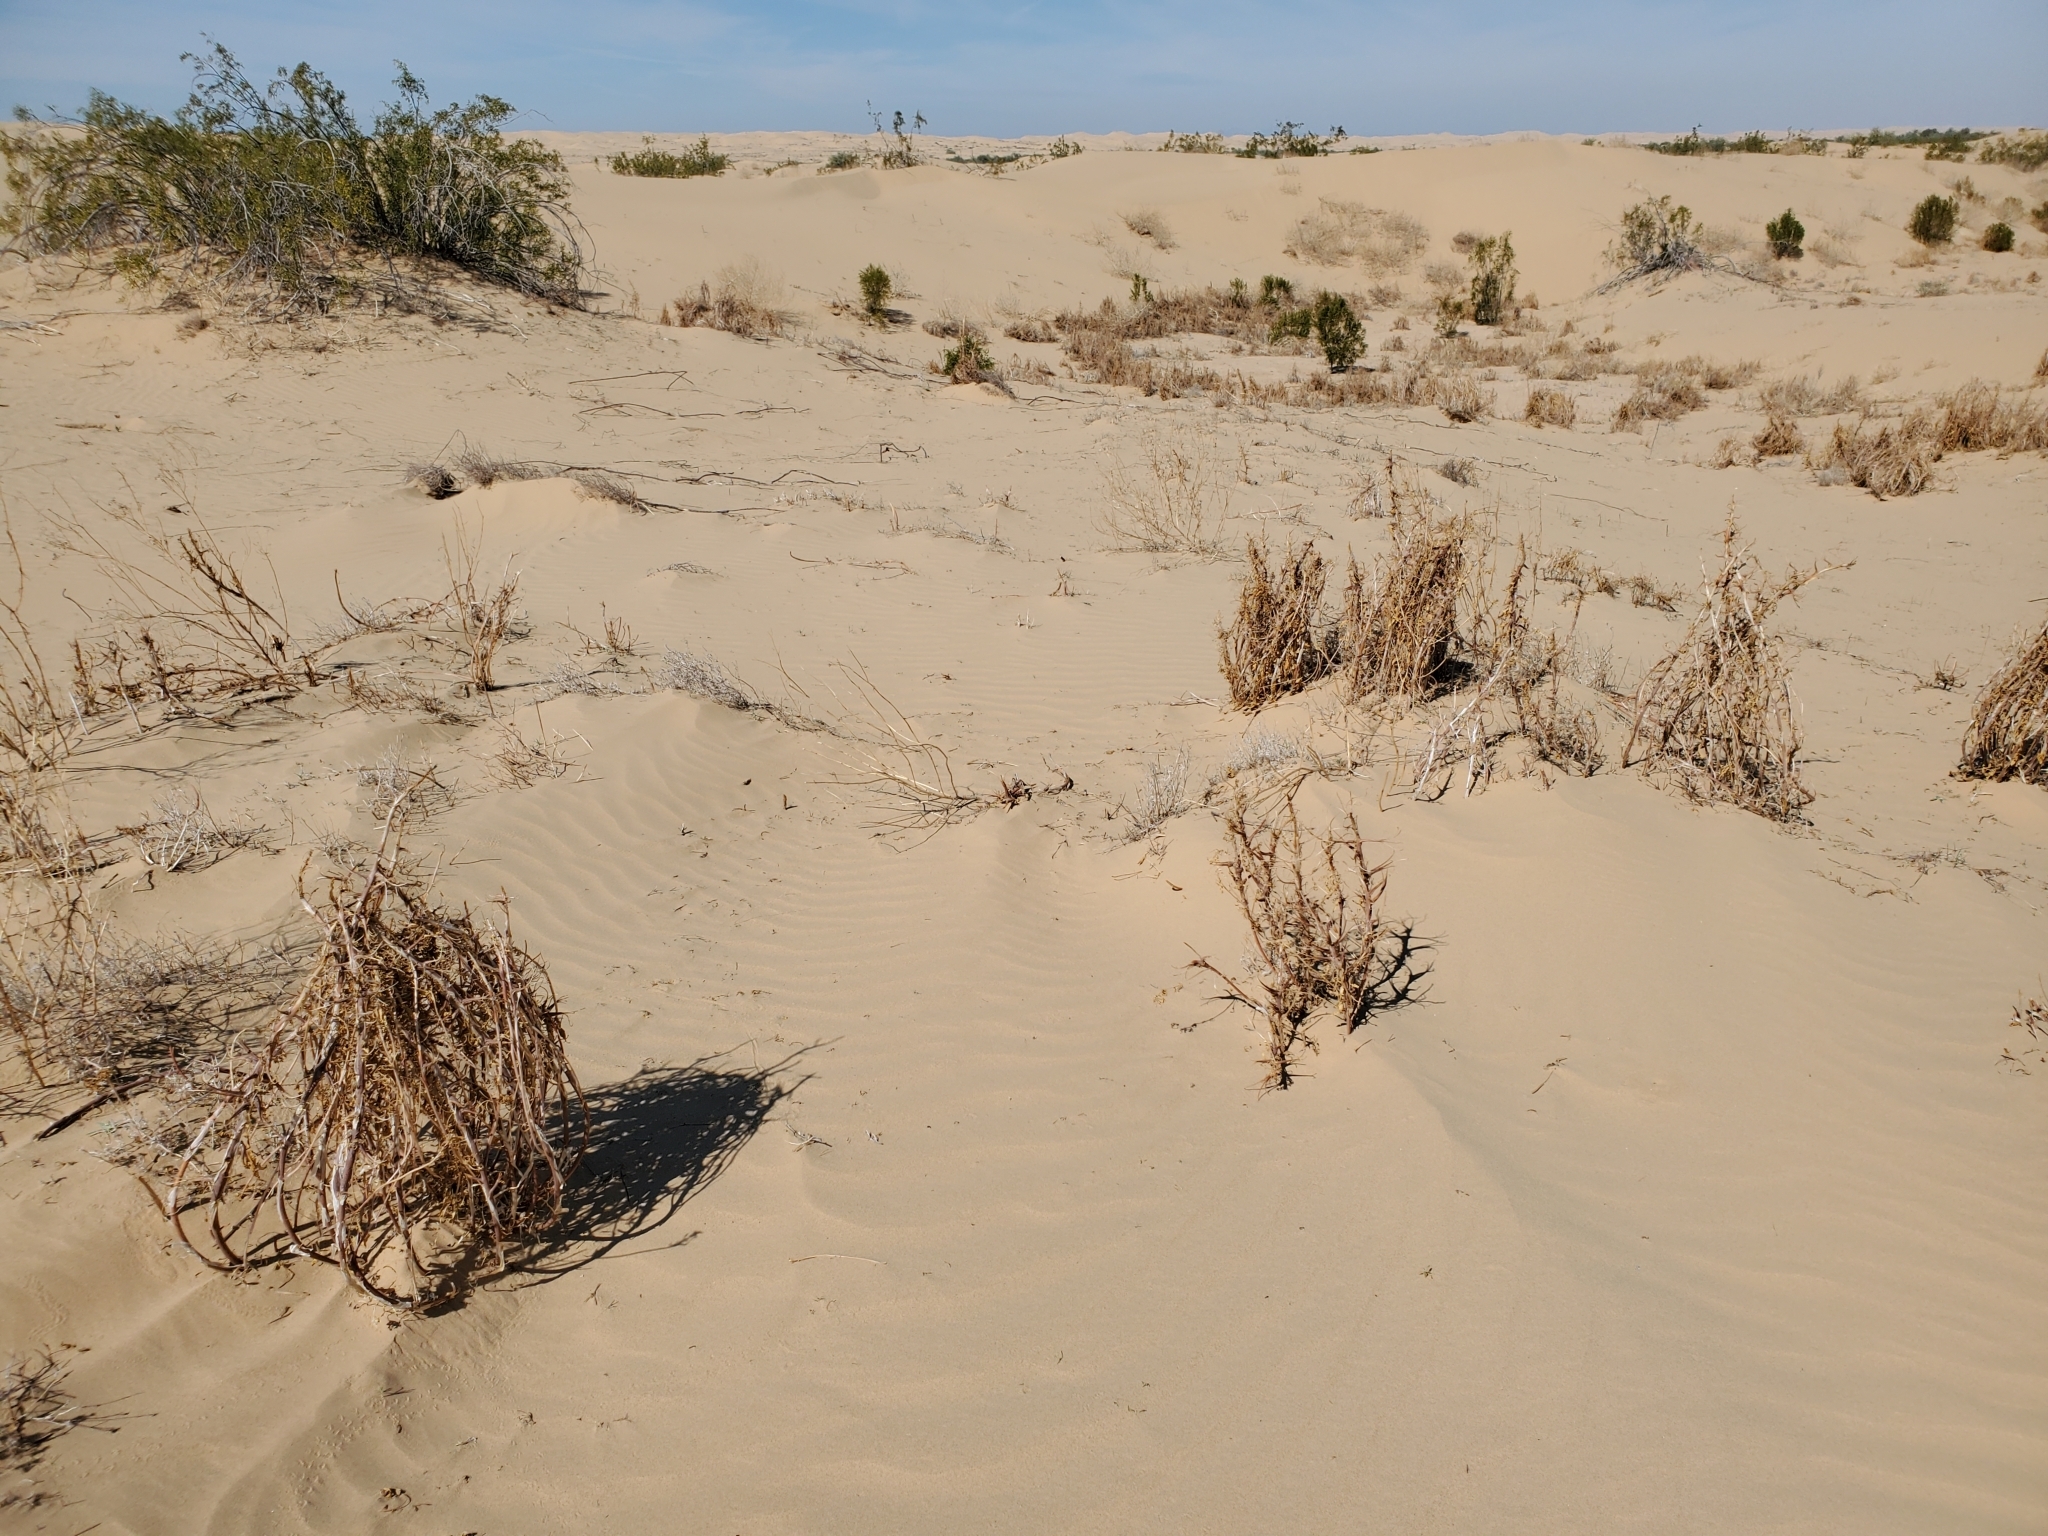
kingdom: Plantae
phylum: Tracheophyta
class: Magnoliopsida
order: Myrtales
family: Onagraceae
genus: Oenothera
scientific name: Oenothera deltoides
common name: Basket evening-primrose
